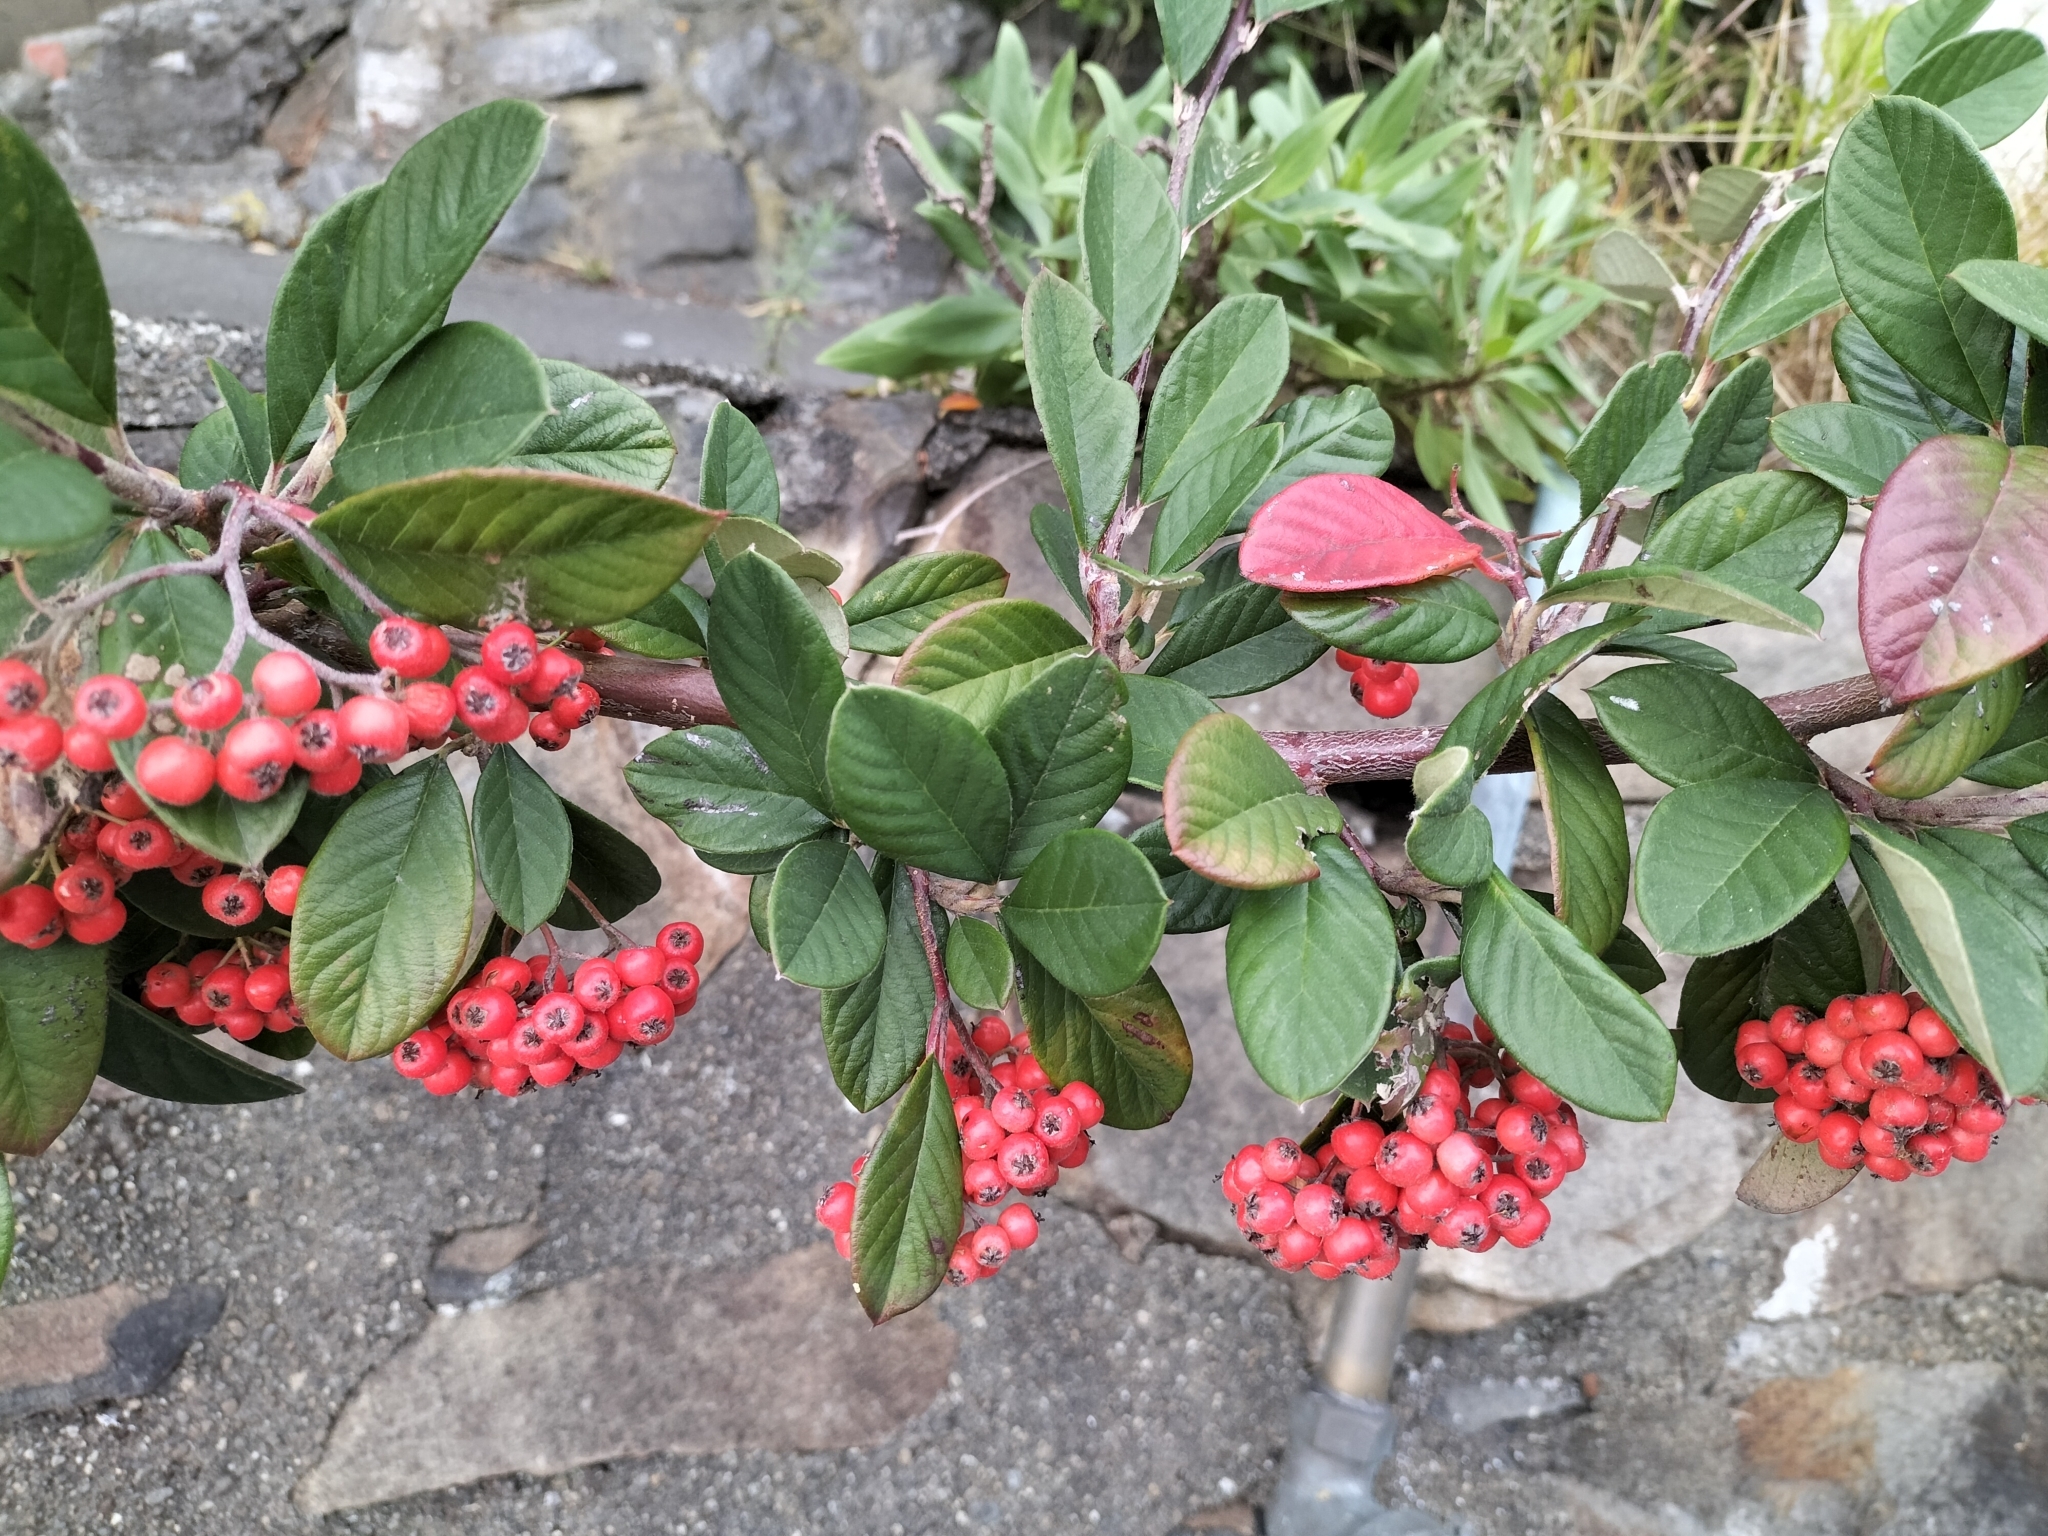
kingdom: Plantae
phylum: Tracheophyta
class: Magnoliopsida
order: Rosales
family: Rosaceae
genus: Cotoneaster
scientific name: Cotoneaster coriaceus
